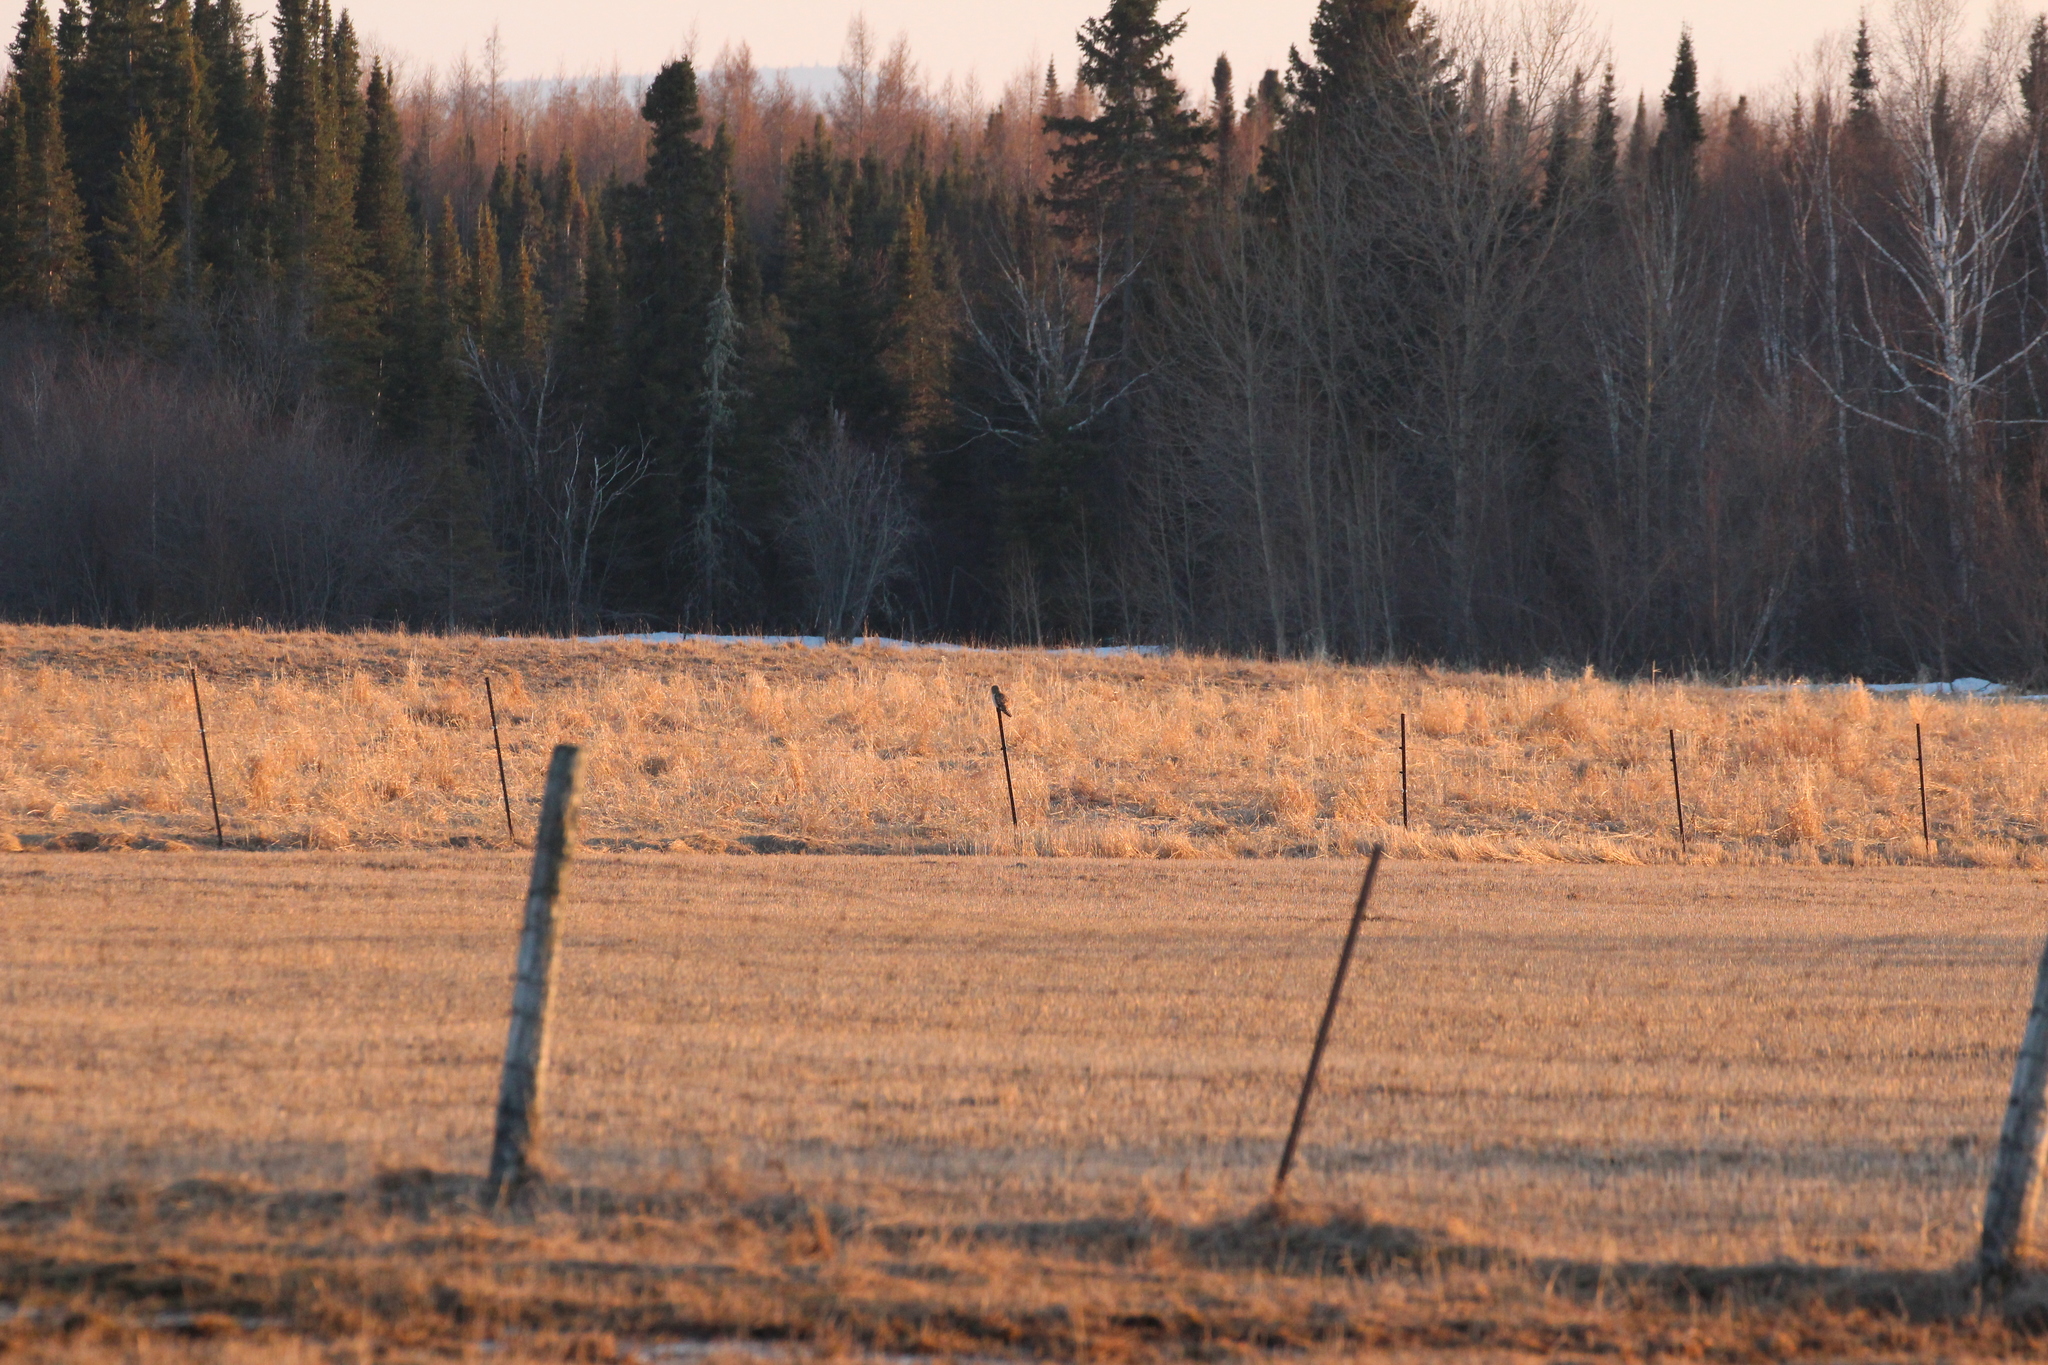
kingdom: Animalia
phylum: Chordata
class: Aves
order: Strigiformes
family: Strigidae
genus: Asio
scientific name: Asio flammeus
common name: Short-eared owl
